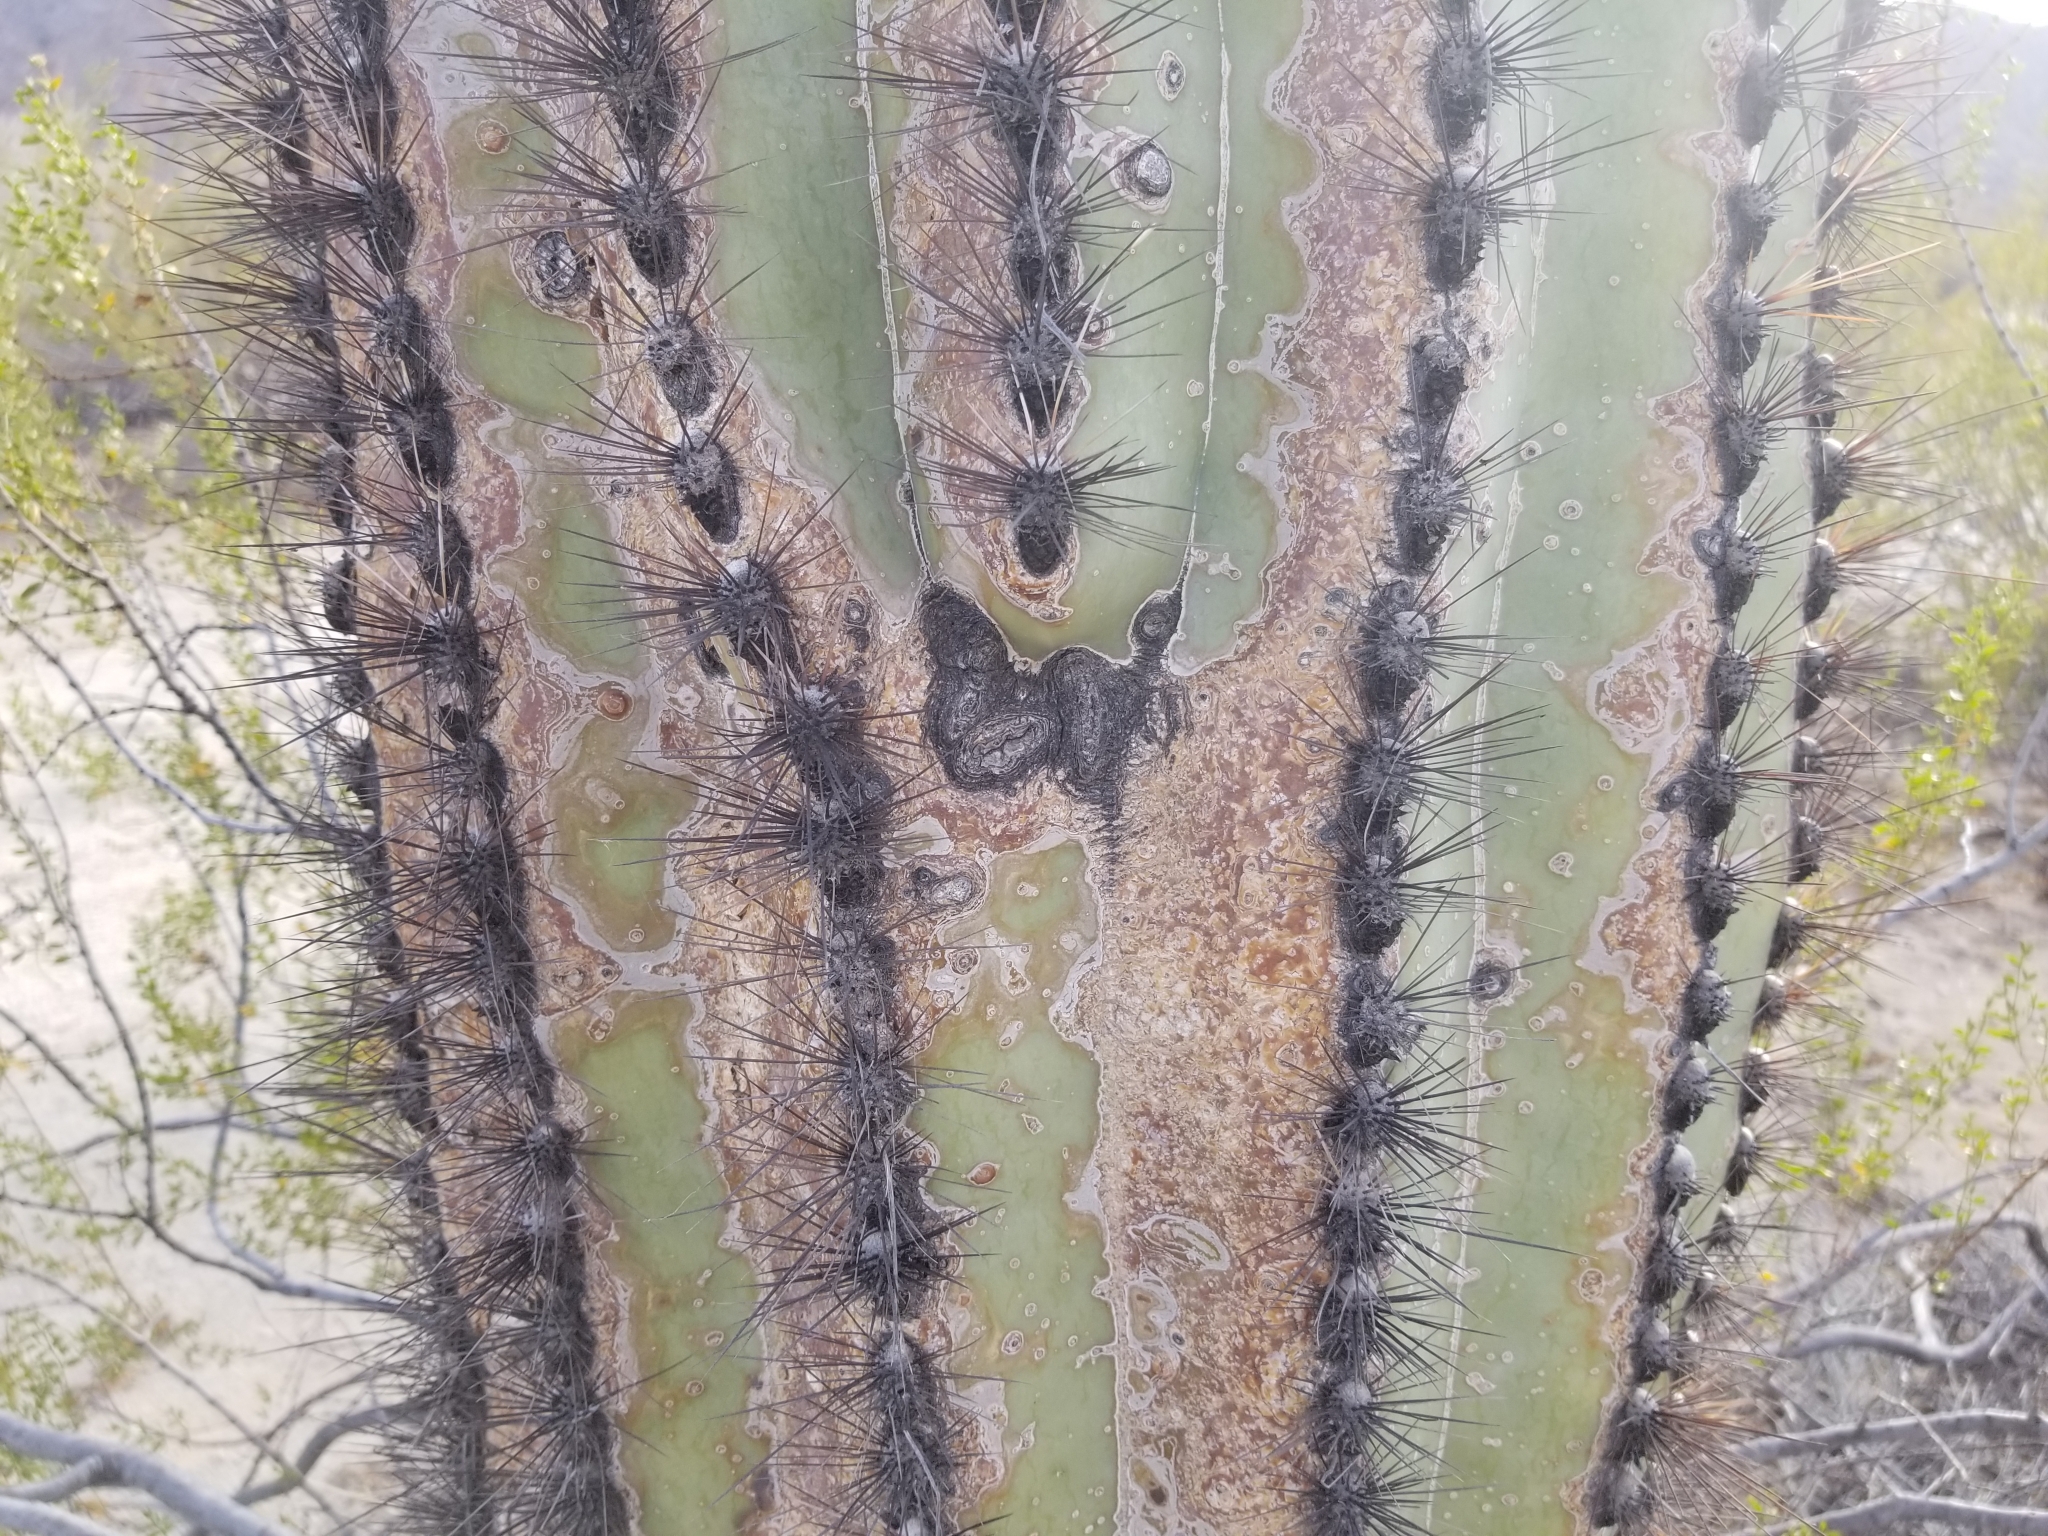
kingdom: Plantae
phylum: Tracheophyta
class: Magnoliopsida
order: Caryophyllales
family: Cactaceae
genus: Carnegiea
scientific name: Carnegiea gigantea
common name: Saguaro
